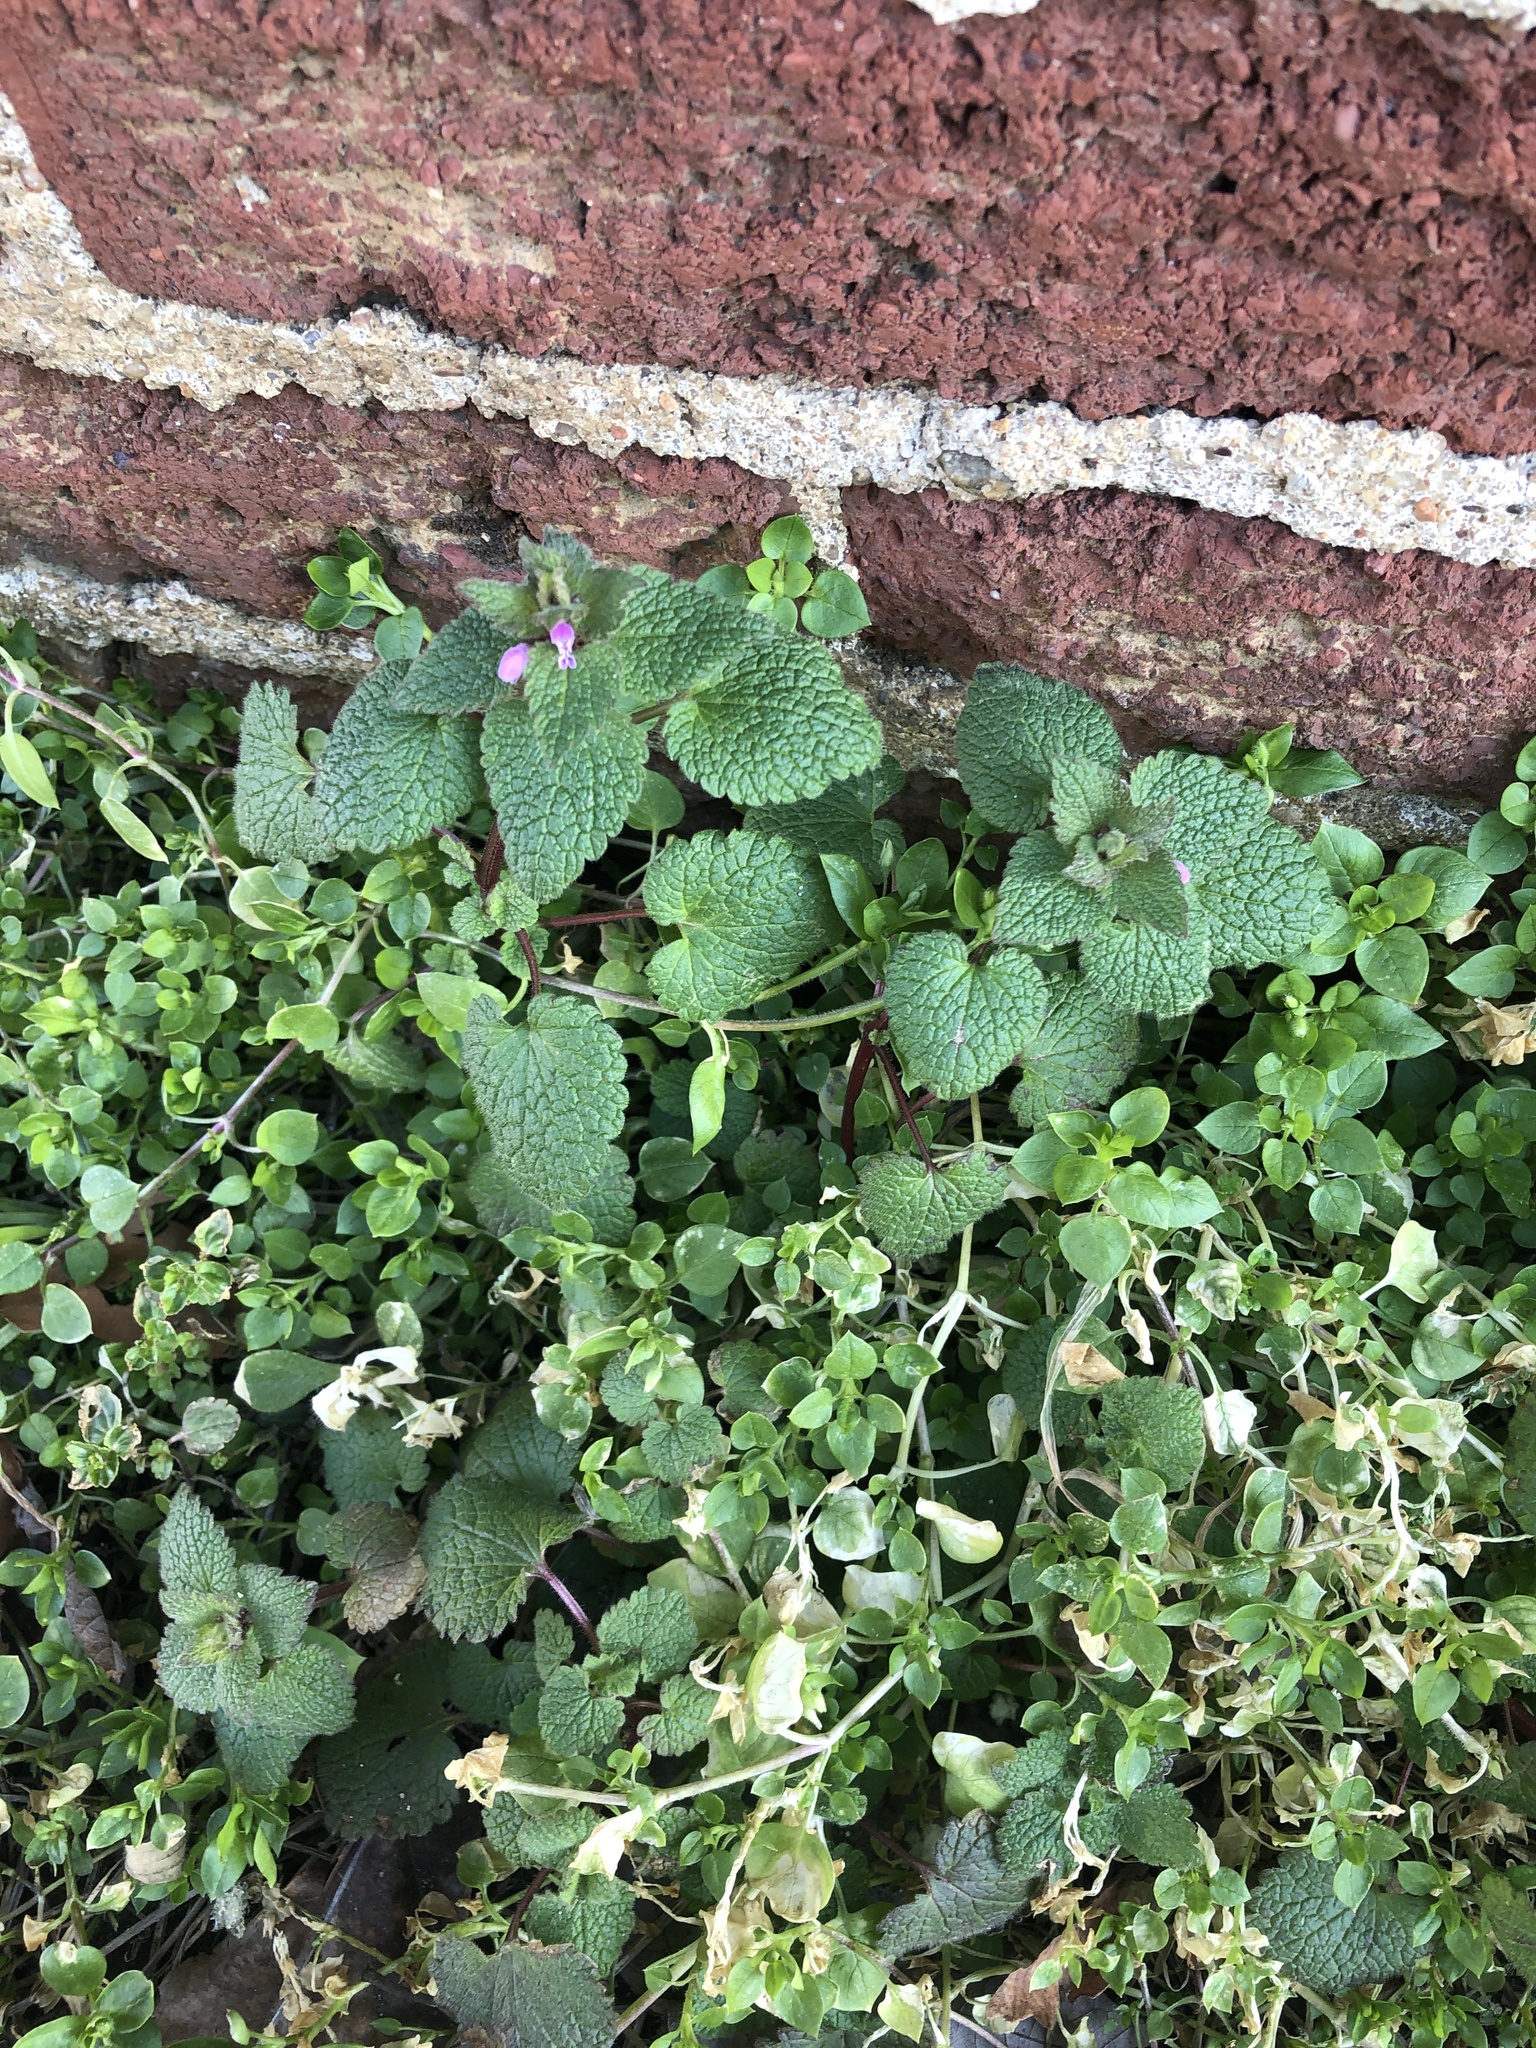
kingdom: Plantae
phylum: Tracheophyta
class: Magnoliopsida
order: Lamiales
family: Lamiaceae
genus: Lamium
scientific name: Lamium purpureum
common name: Red dead-nettle
